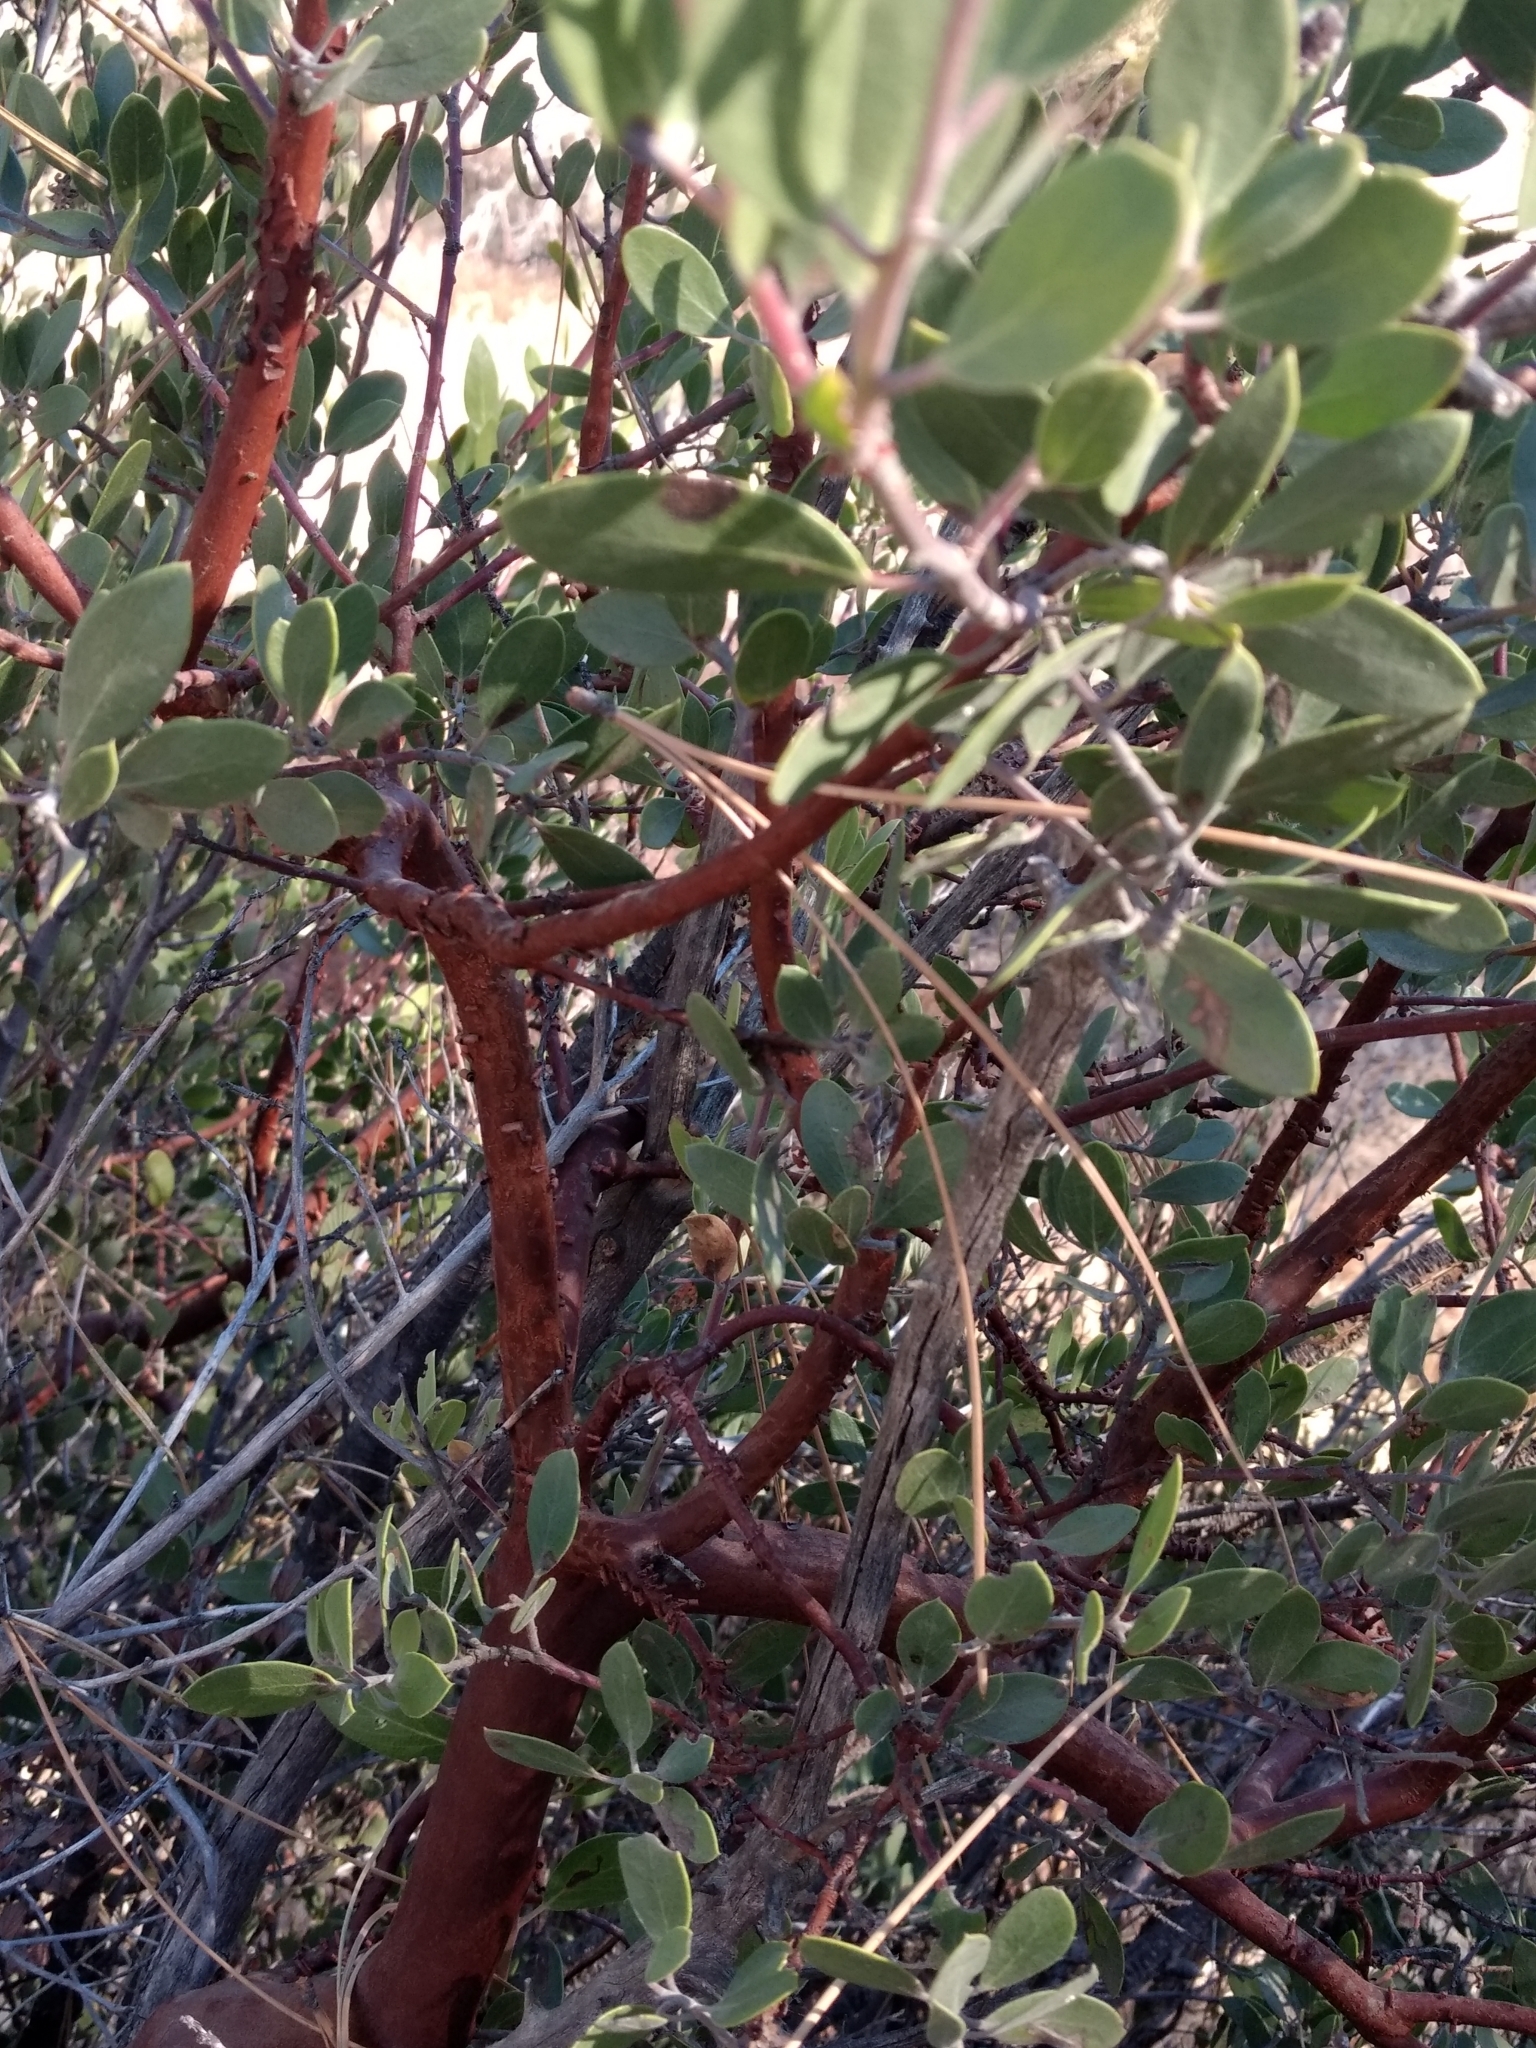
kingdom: Plantae
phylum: Tracheophyta
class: Magnoliopsida
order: Ericales
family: Ericaceae
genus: Arctostaphylos
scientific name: Arctostaphylos pungens
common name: Mexican manzanita
